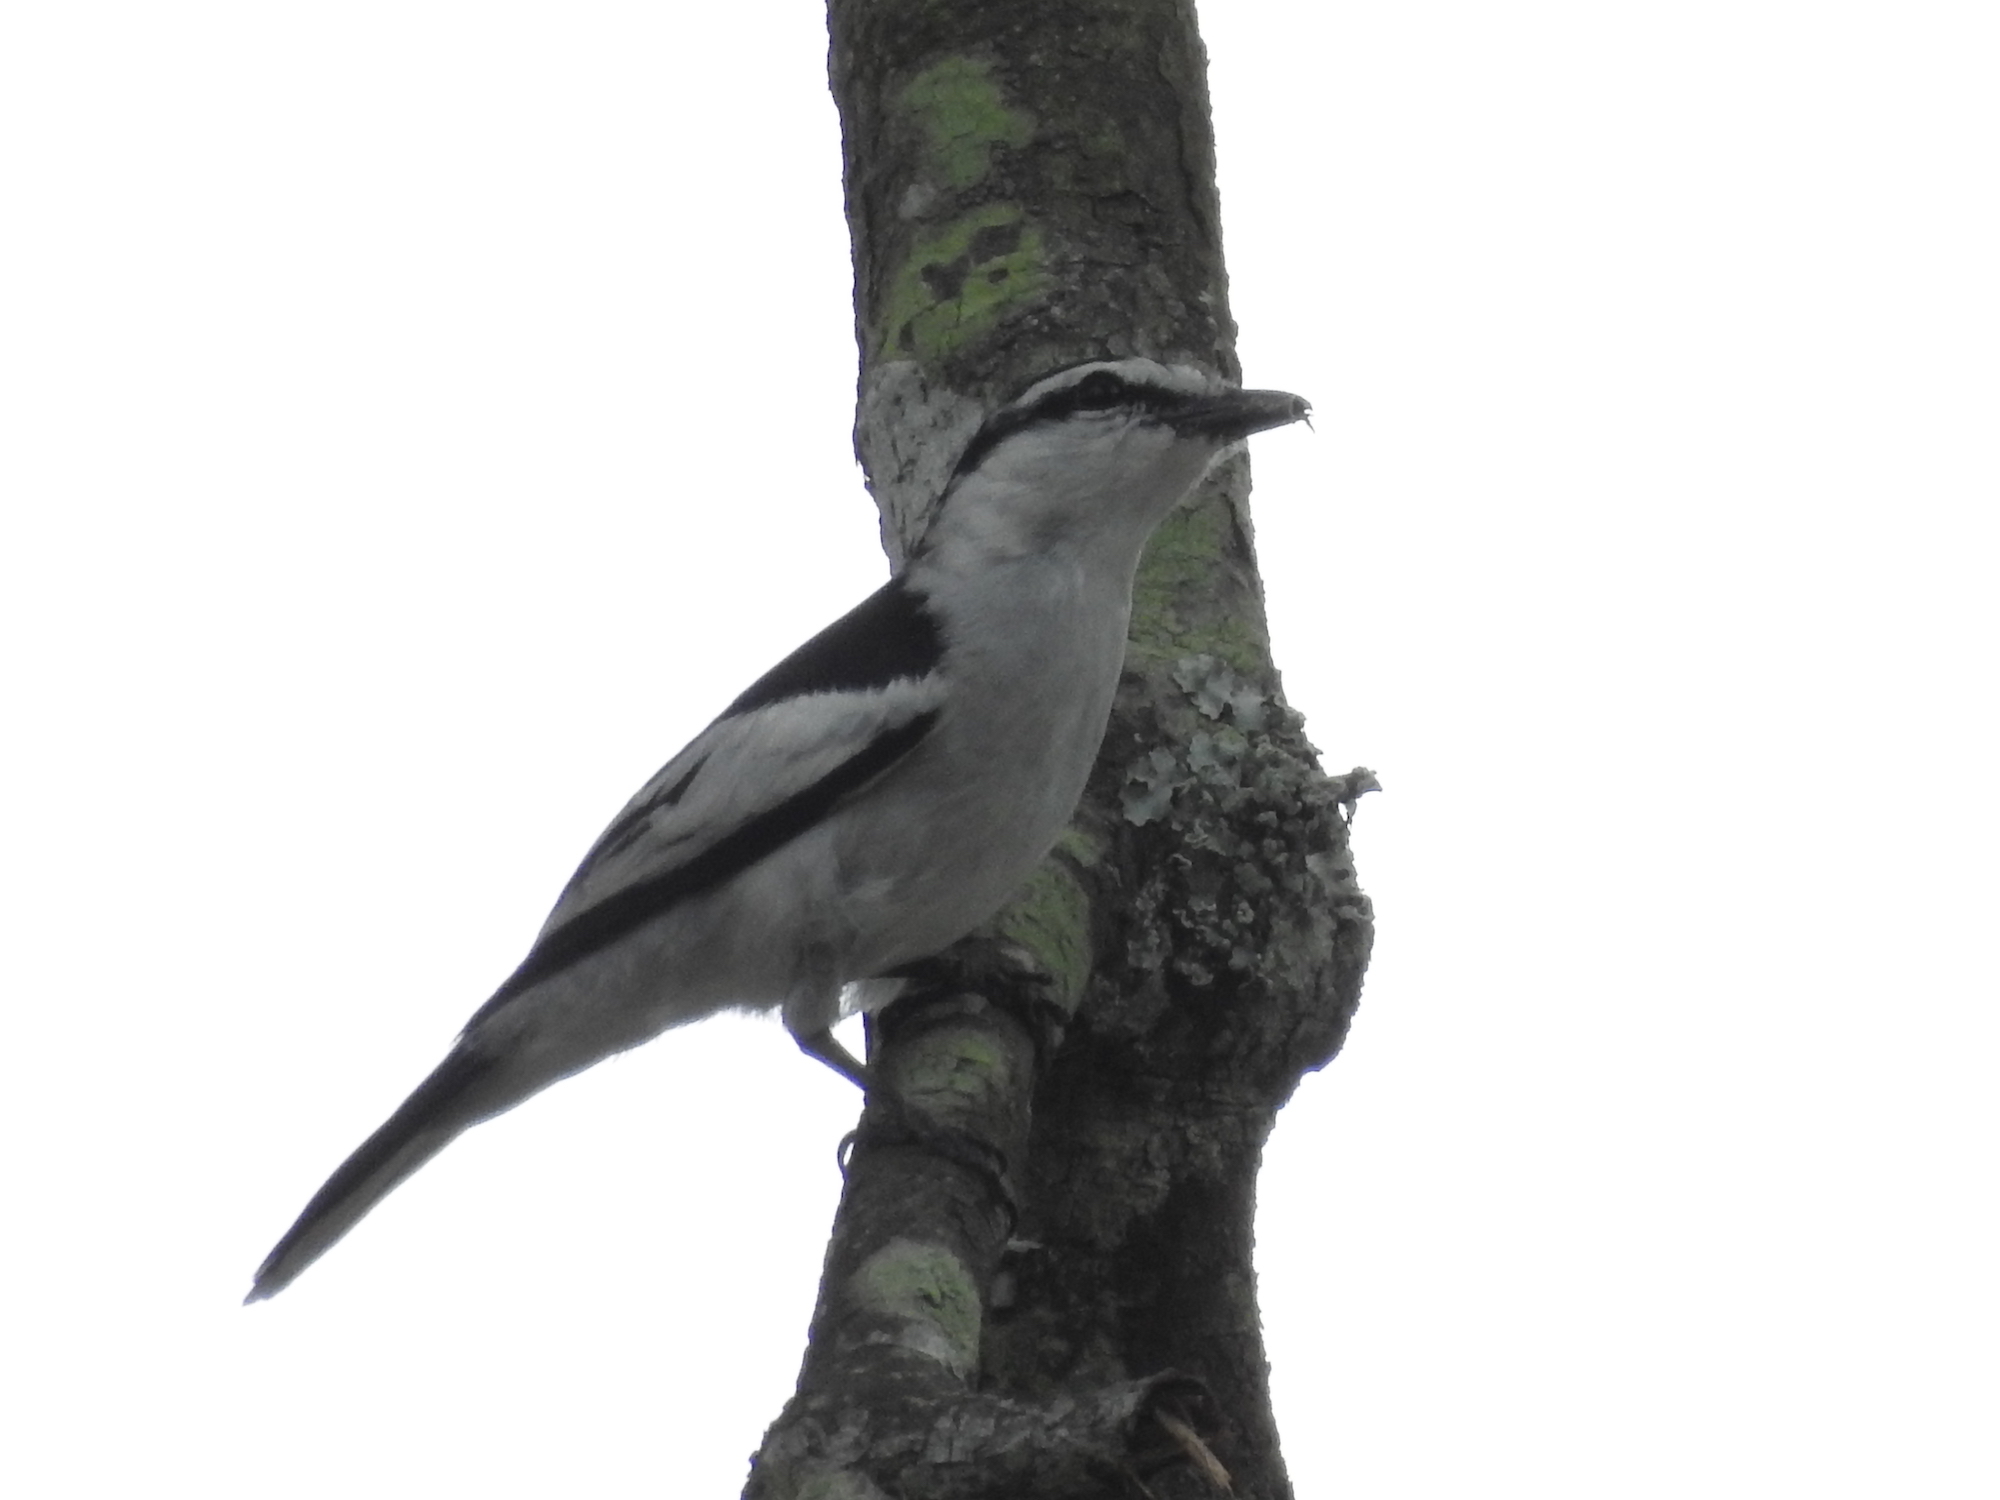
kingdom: Animalia
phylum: Chordata
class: Aves
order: Passeriformes
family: Campephagidae
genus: Lalage
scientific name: Lalage nigra
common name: Pied triller
